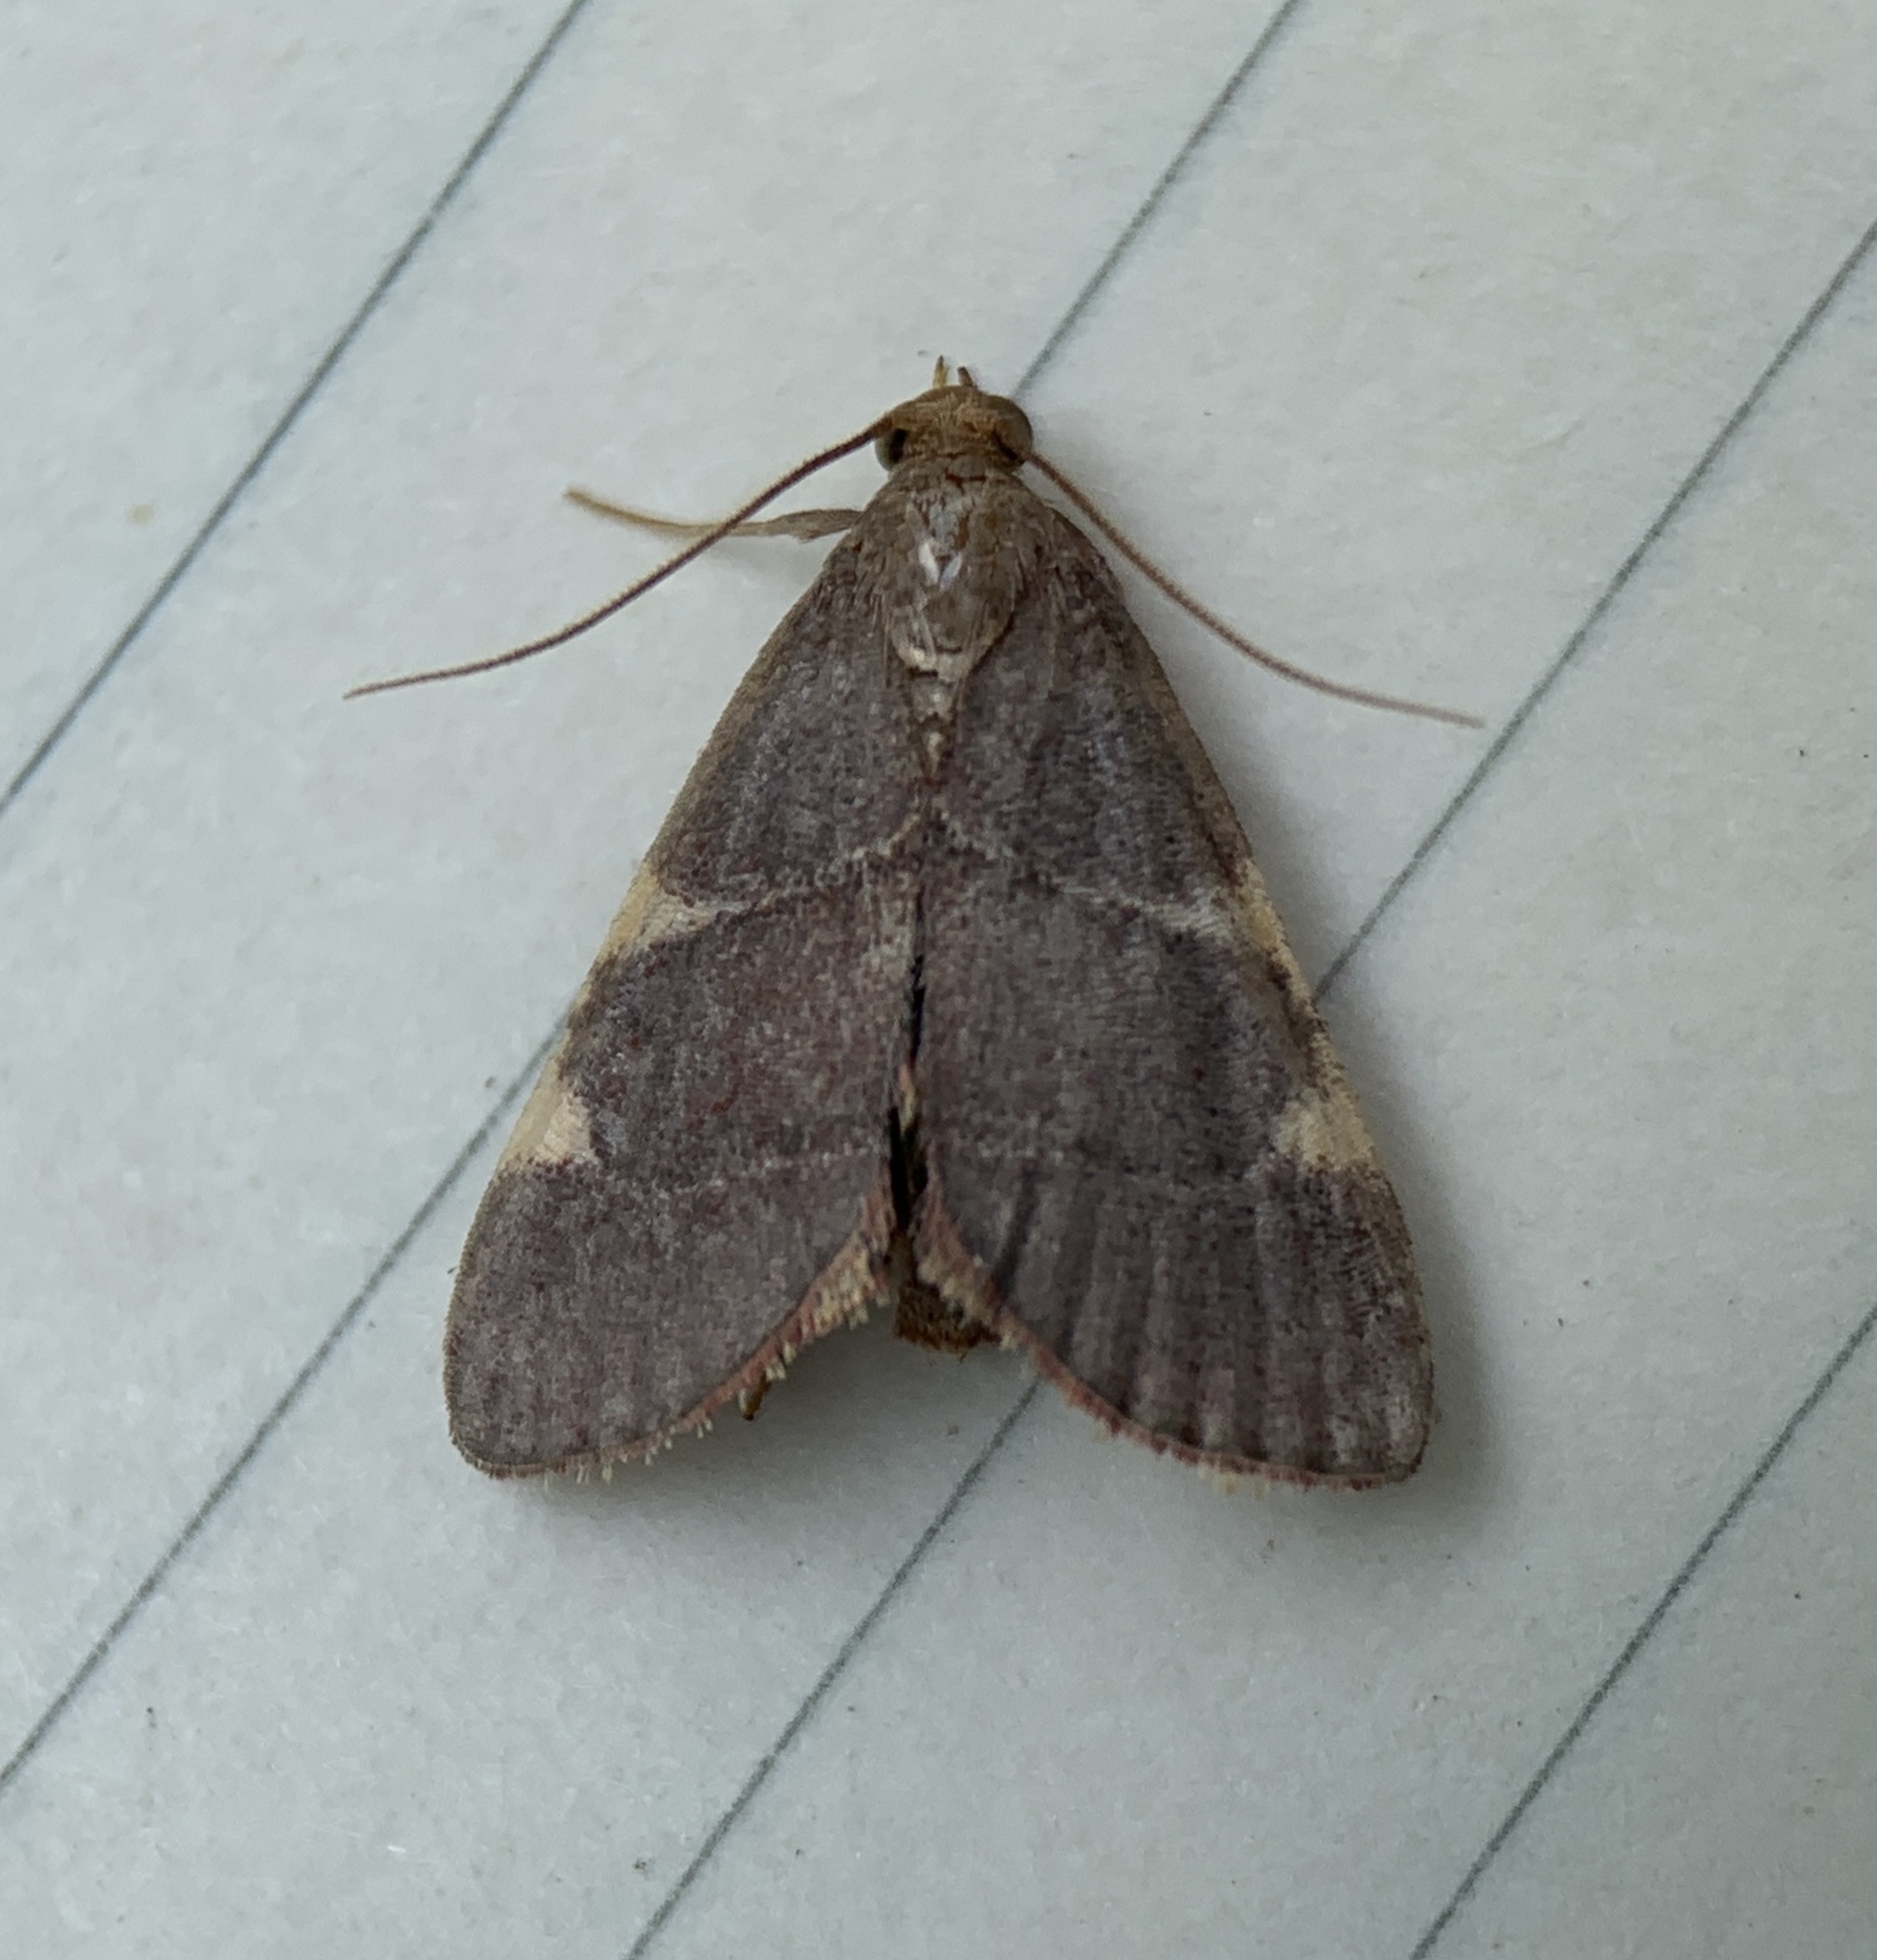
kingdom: Animalia
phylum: Arthropoda
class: Insecta
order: Lepidoptera
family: Pyralidae
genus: Hypsopygia
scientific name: Hypsopygia olinalis
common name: Yellow-fringed dolichomia moth
